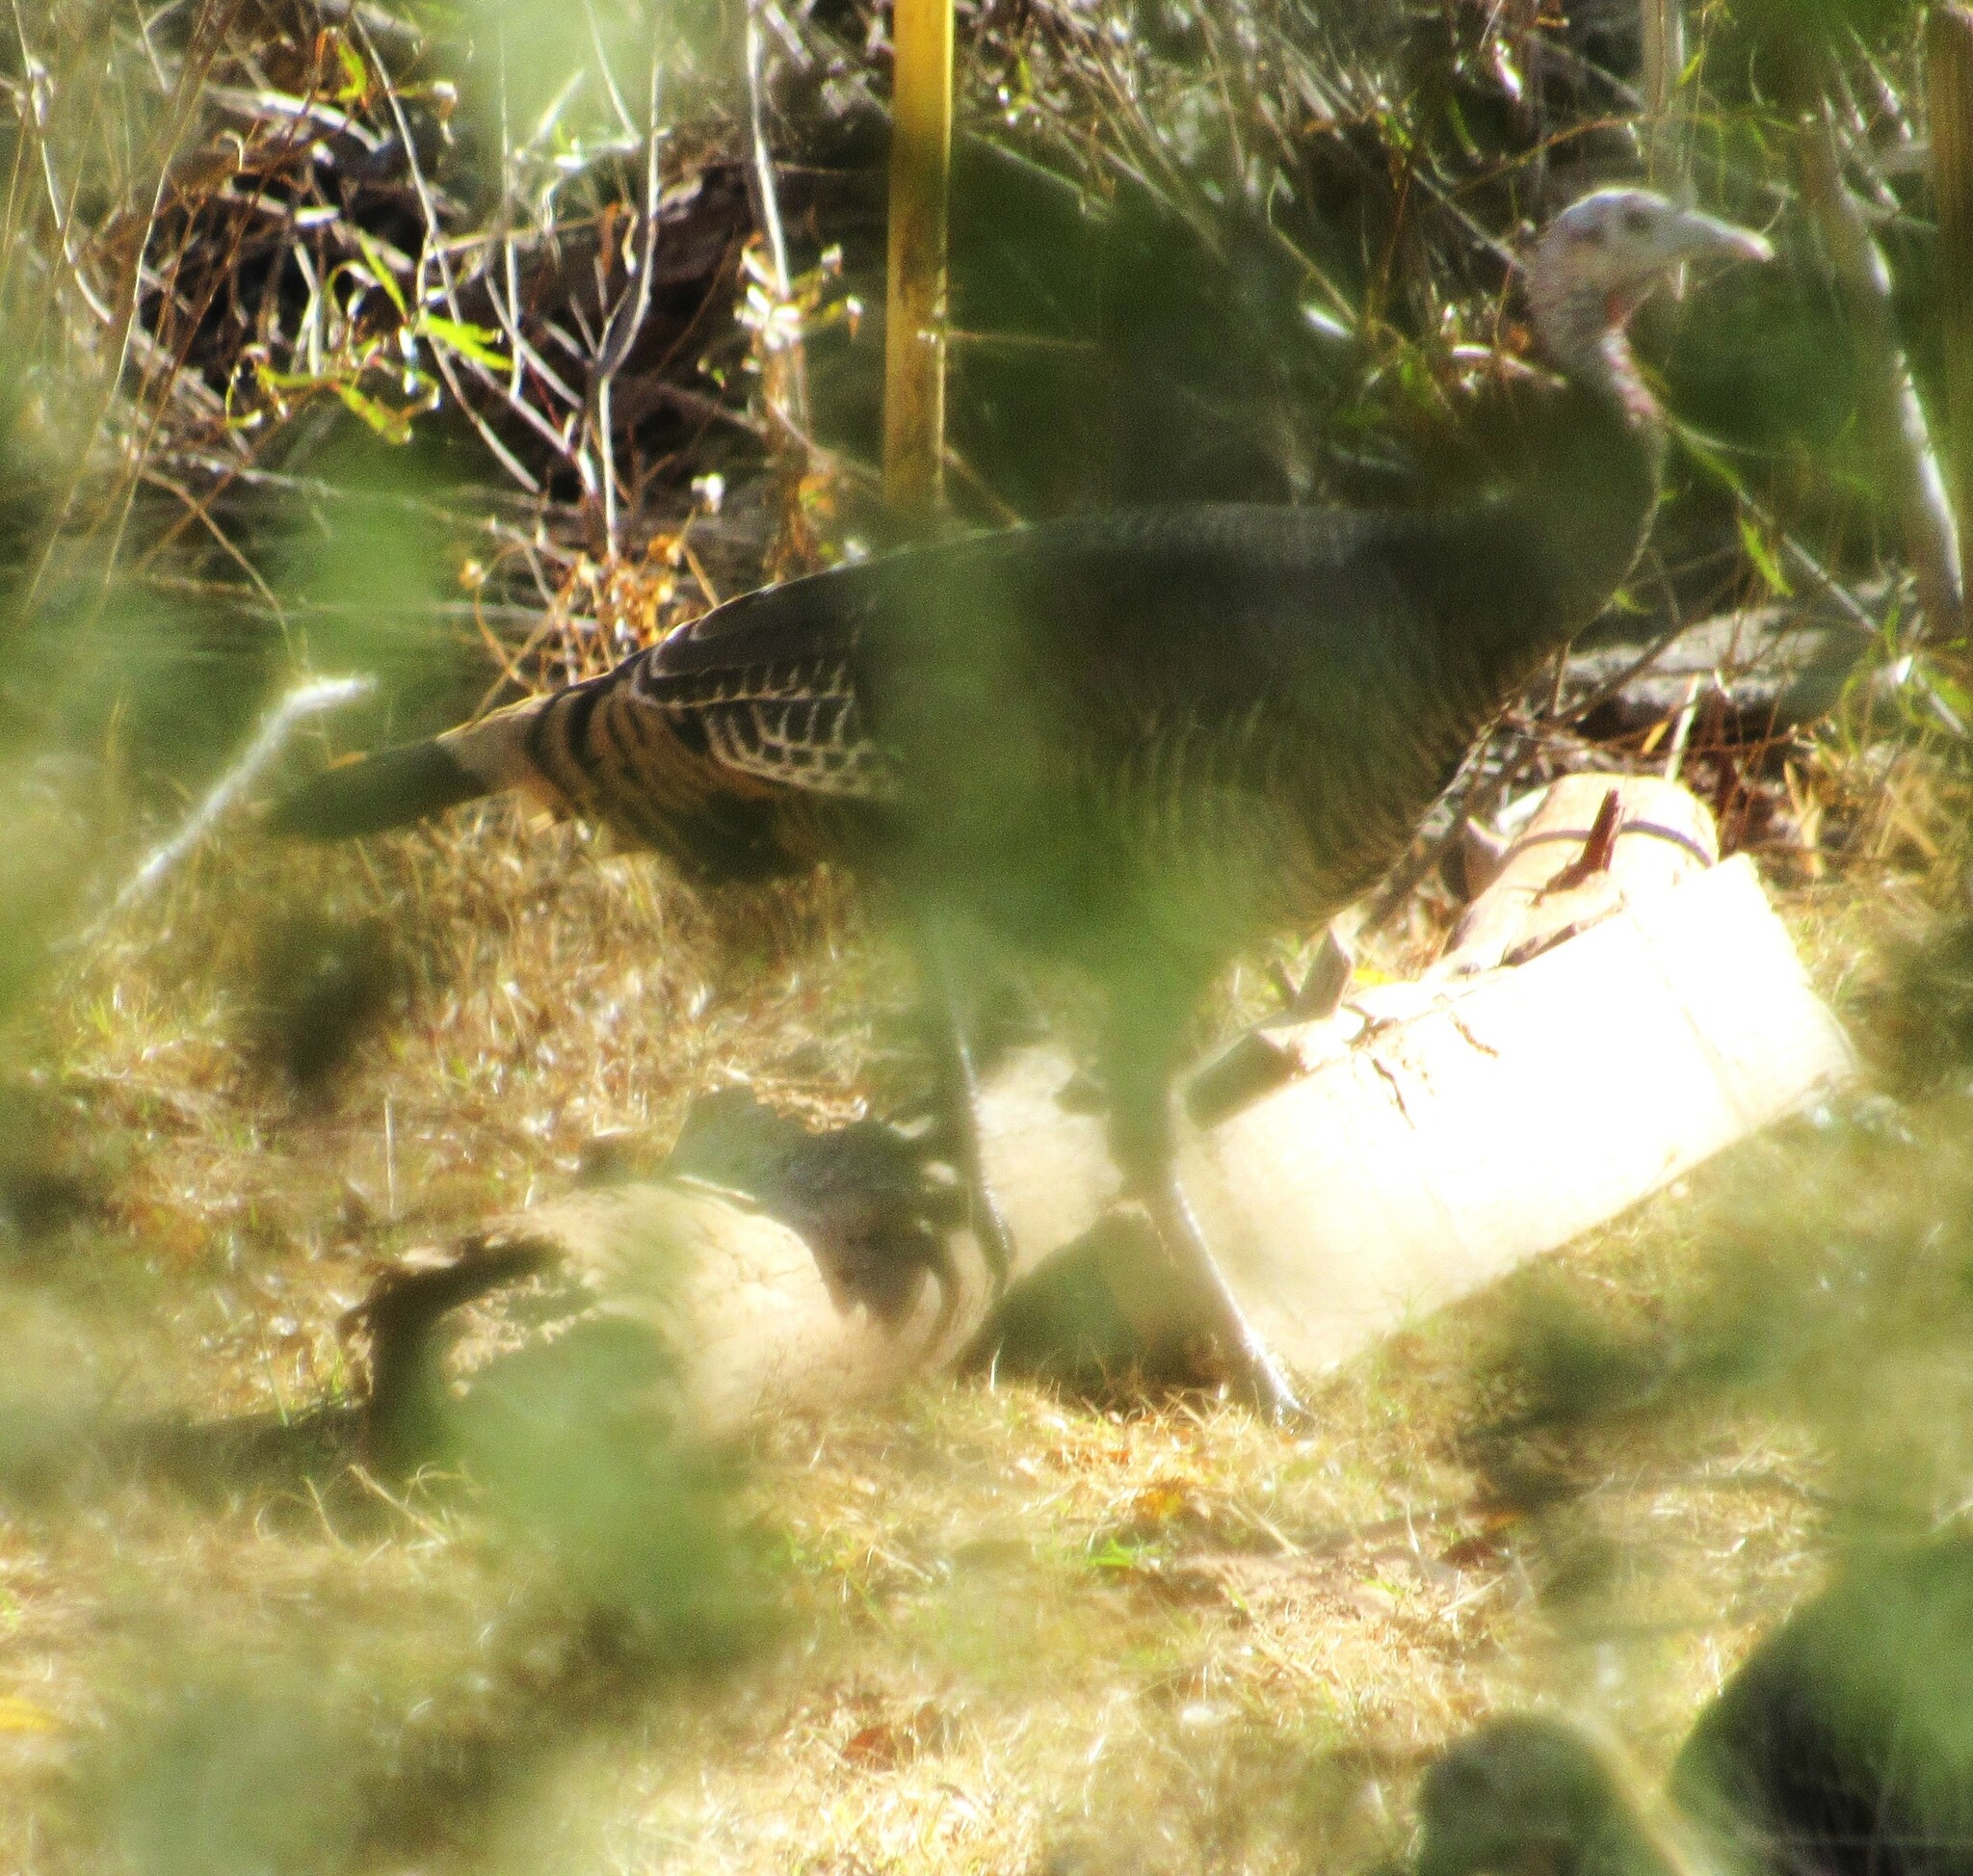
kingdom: Animalia
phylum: Chordata
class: Aves
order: Galliformes
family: Phasianidae
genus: Meleagris
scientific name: Meleagris gallopavo
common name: Wild turkey
